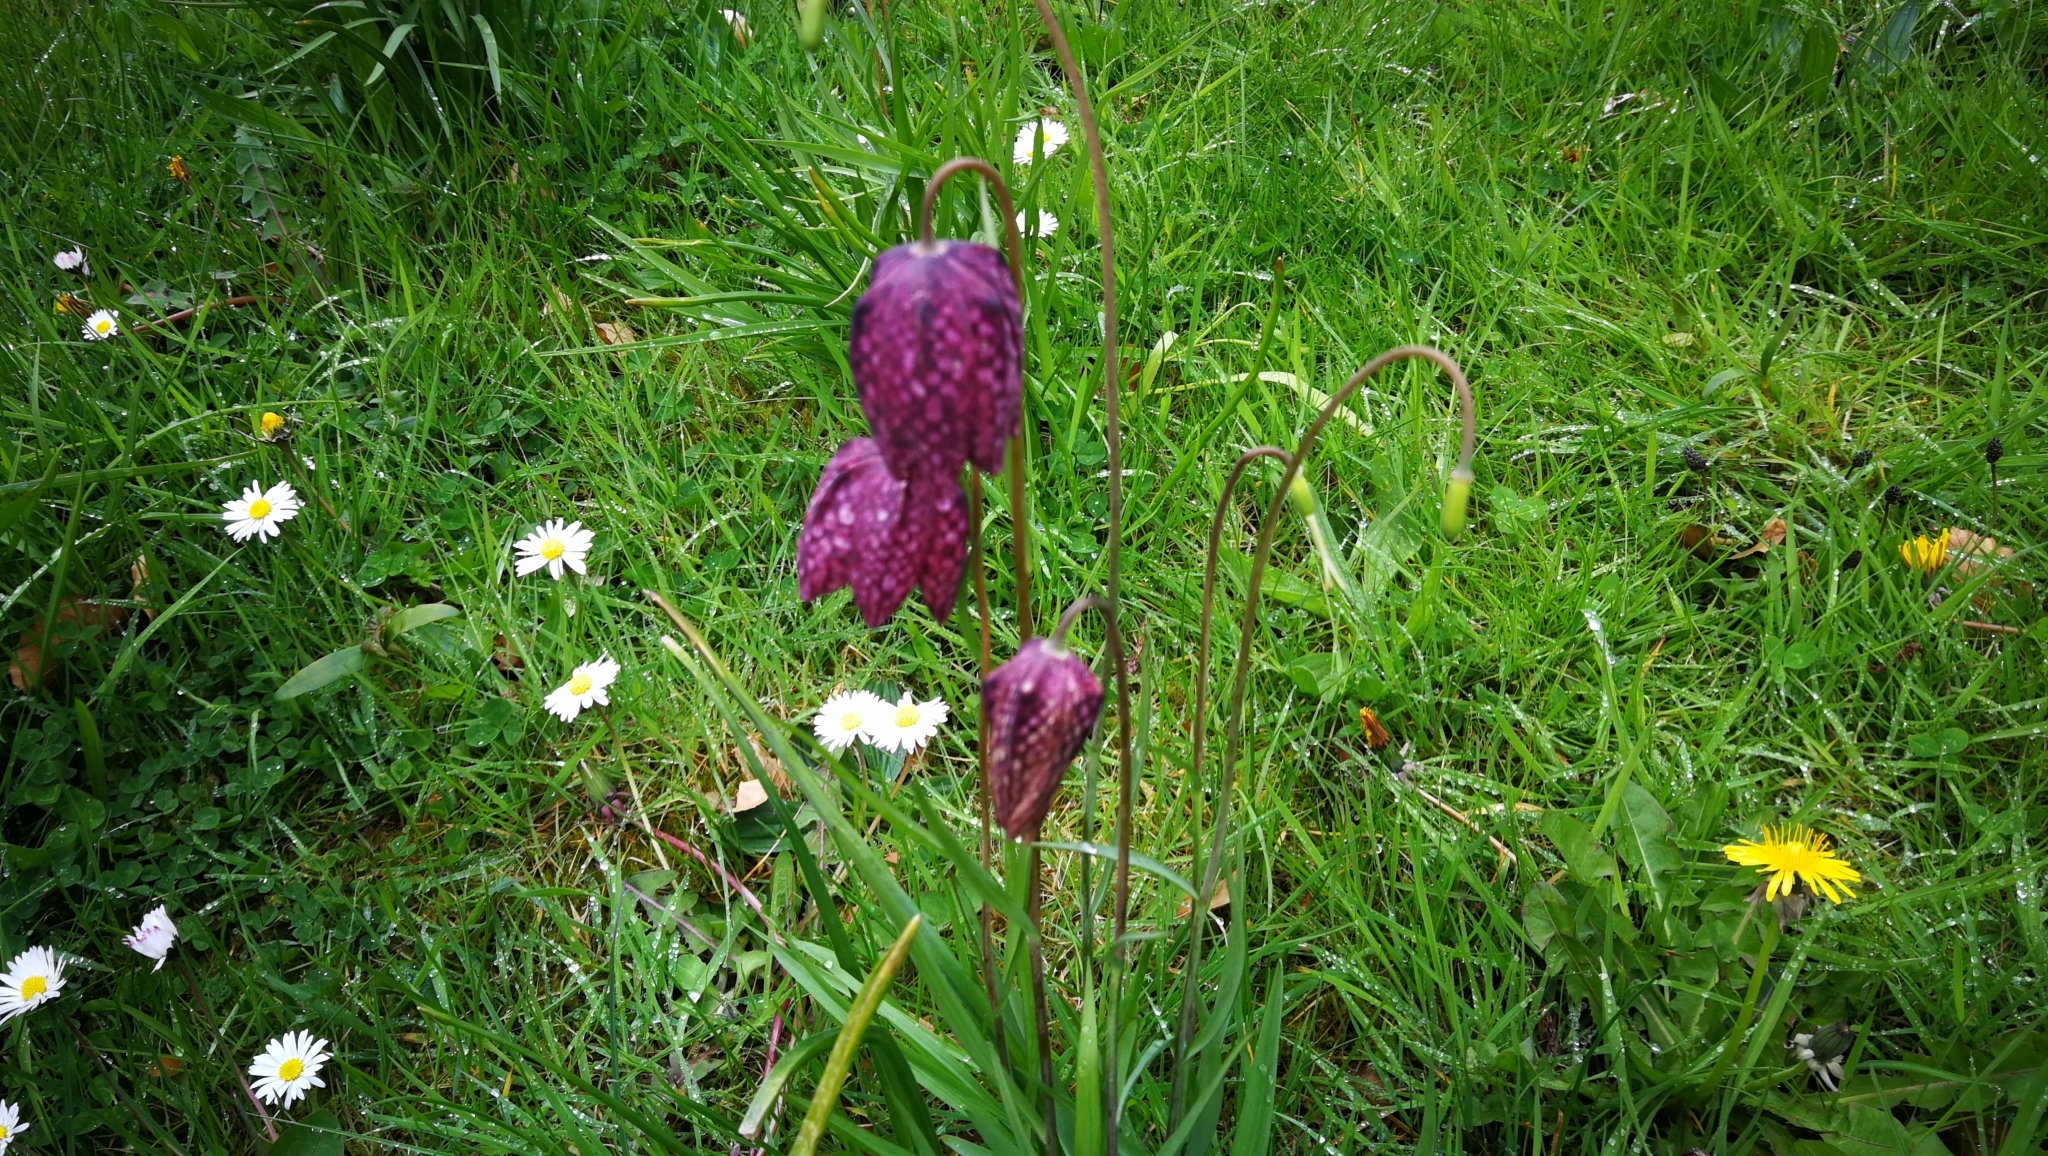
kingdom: Plantae
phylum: Tracheophyta
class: Liliopsida
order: Liliales
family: Liliaceae
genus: Fritillaria
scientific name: Fritillaria meleagris
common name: Fritillary
